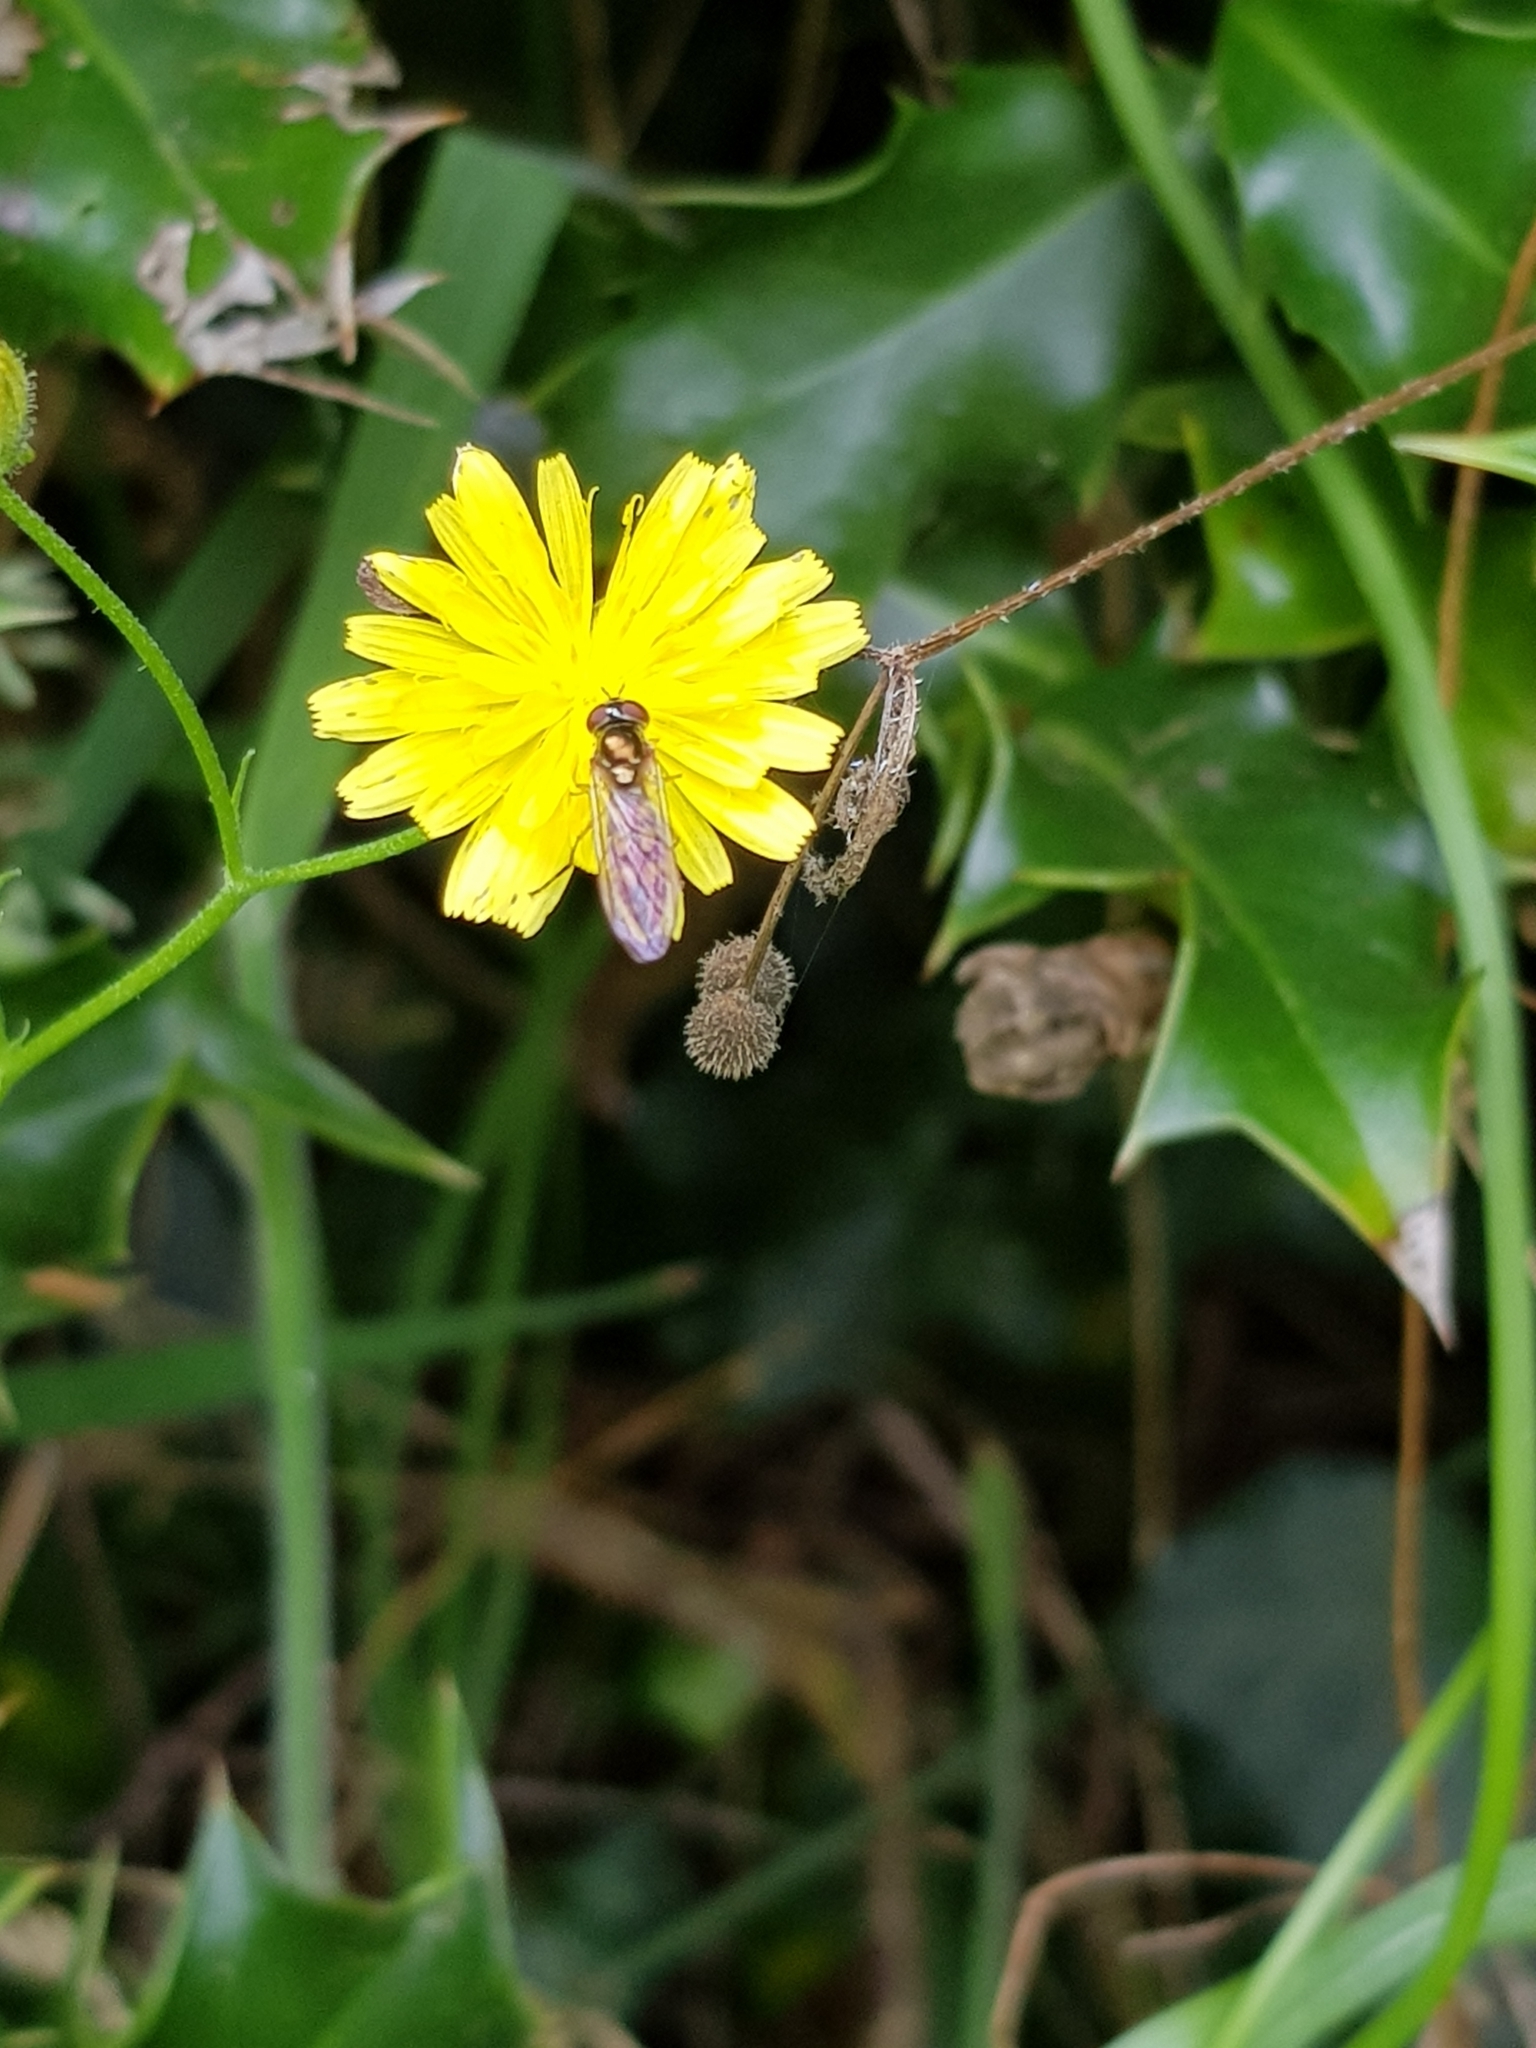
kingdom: Animalia
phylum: Arthropoda
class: Insecta
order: Diptera
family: Syrphidae
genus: Melanostoma
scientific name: Melanostoma scalare
